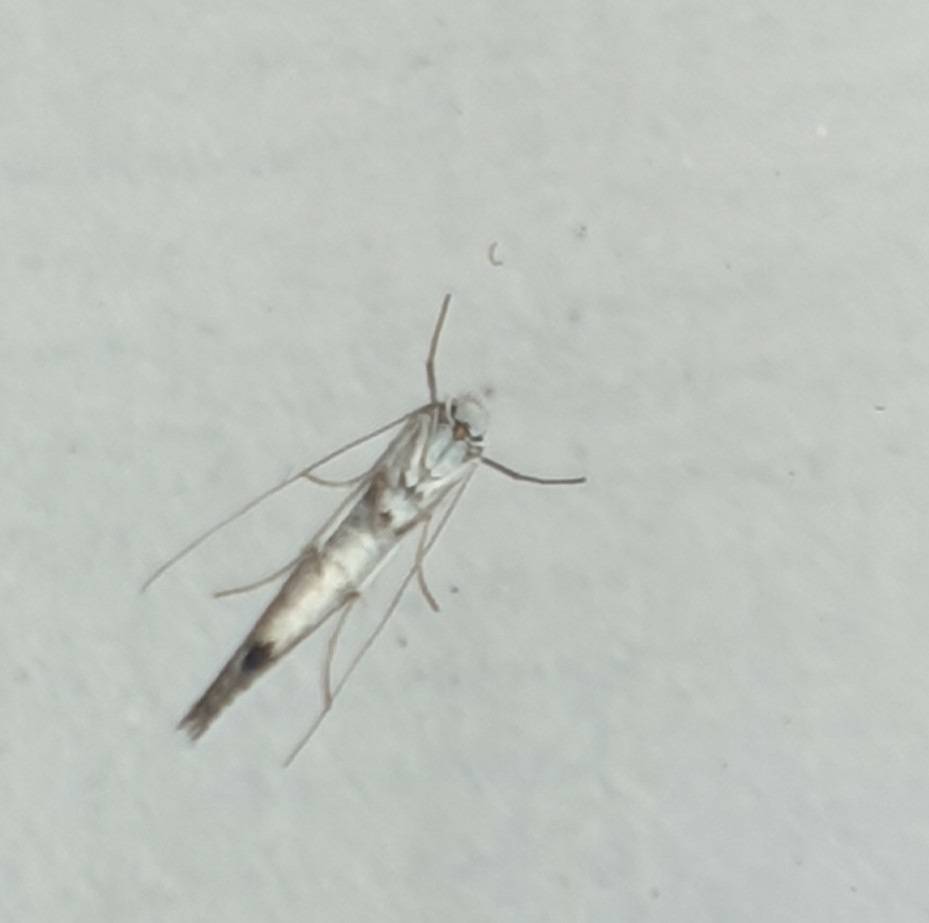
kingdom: Animalia
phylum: Arthropoda
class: Insecta
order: Lepidoptera
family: Lyonetiidae
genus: Lyonetia
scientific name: Lyonetia clerkella
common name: Apple leaf miner
